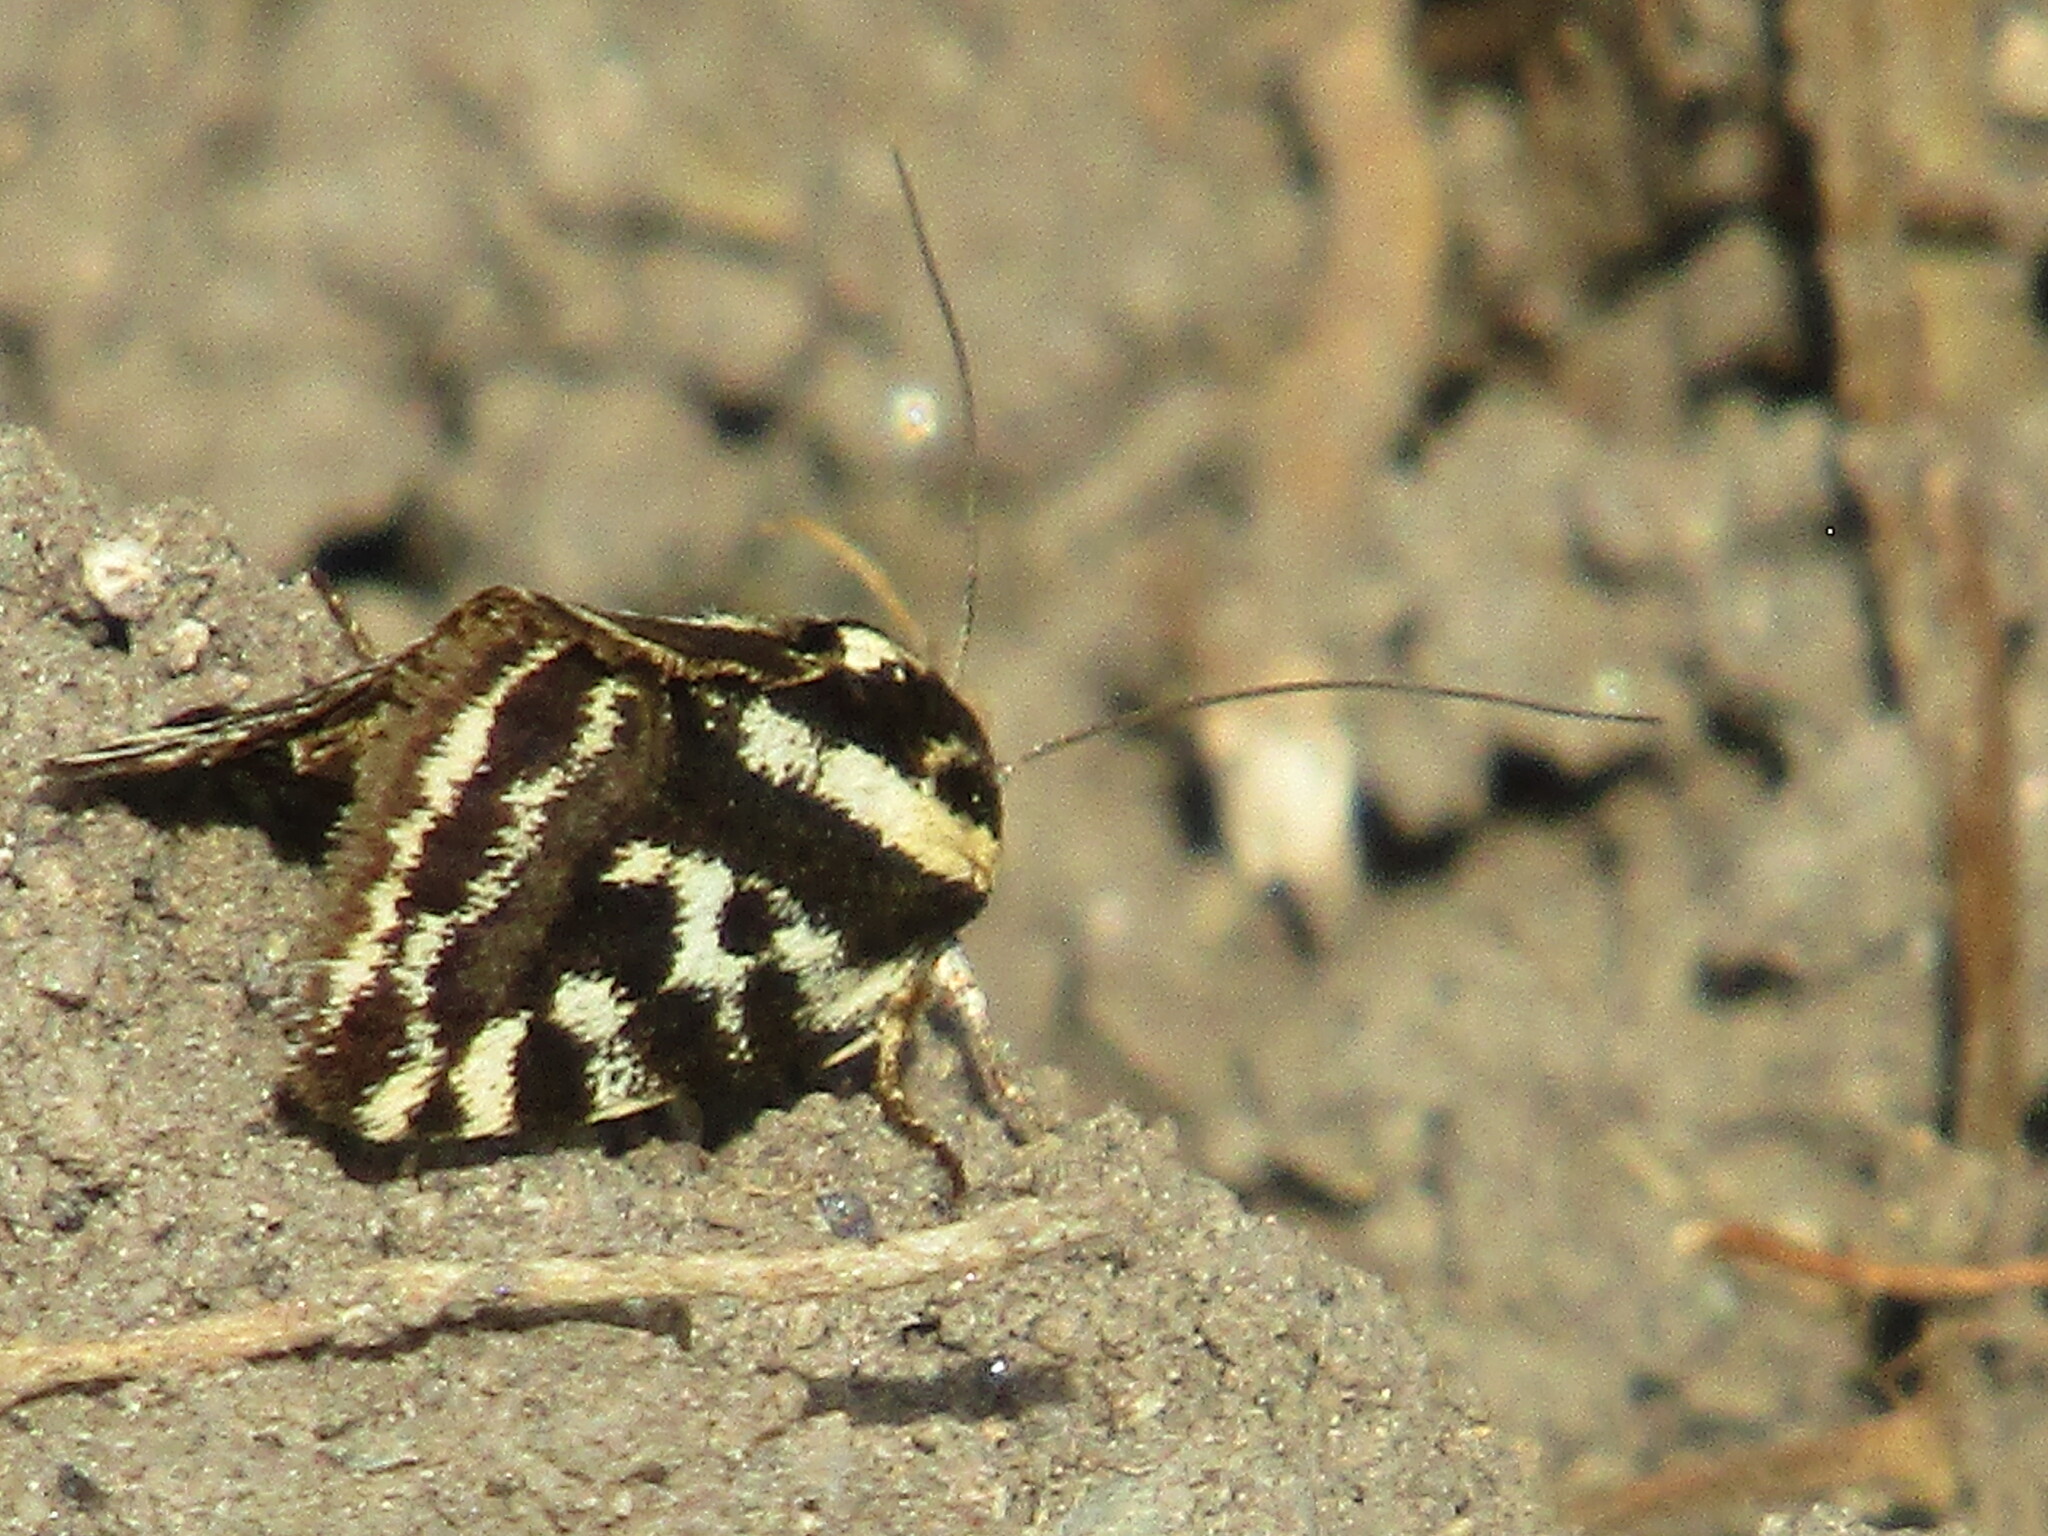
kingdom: Animalia
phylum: Arthropoda
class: Insecta
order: Lepidoptera
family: Noctuidae
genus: Acontia
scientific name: Acontia trabealis
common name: Spotted sulphur
